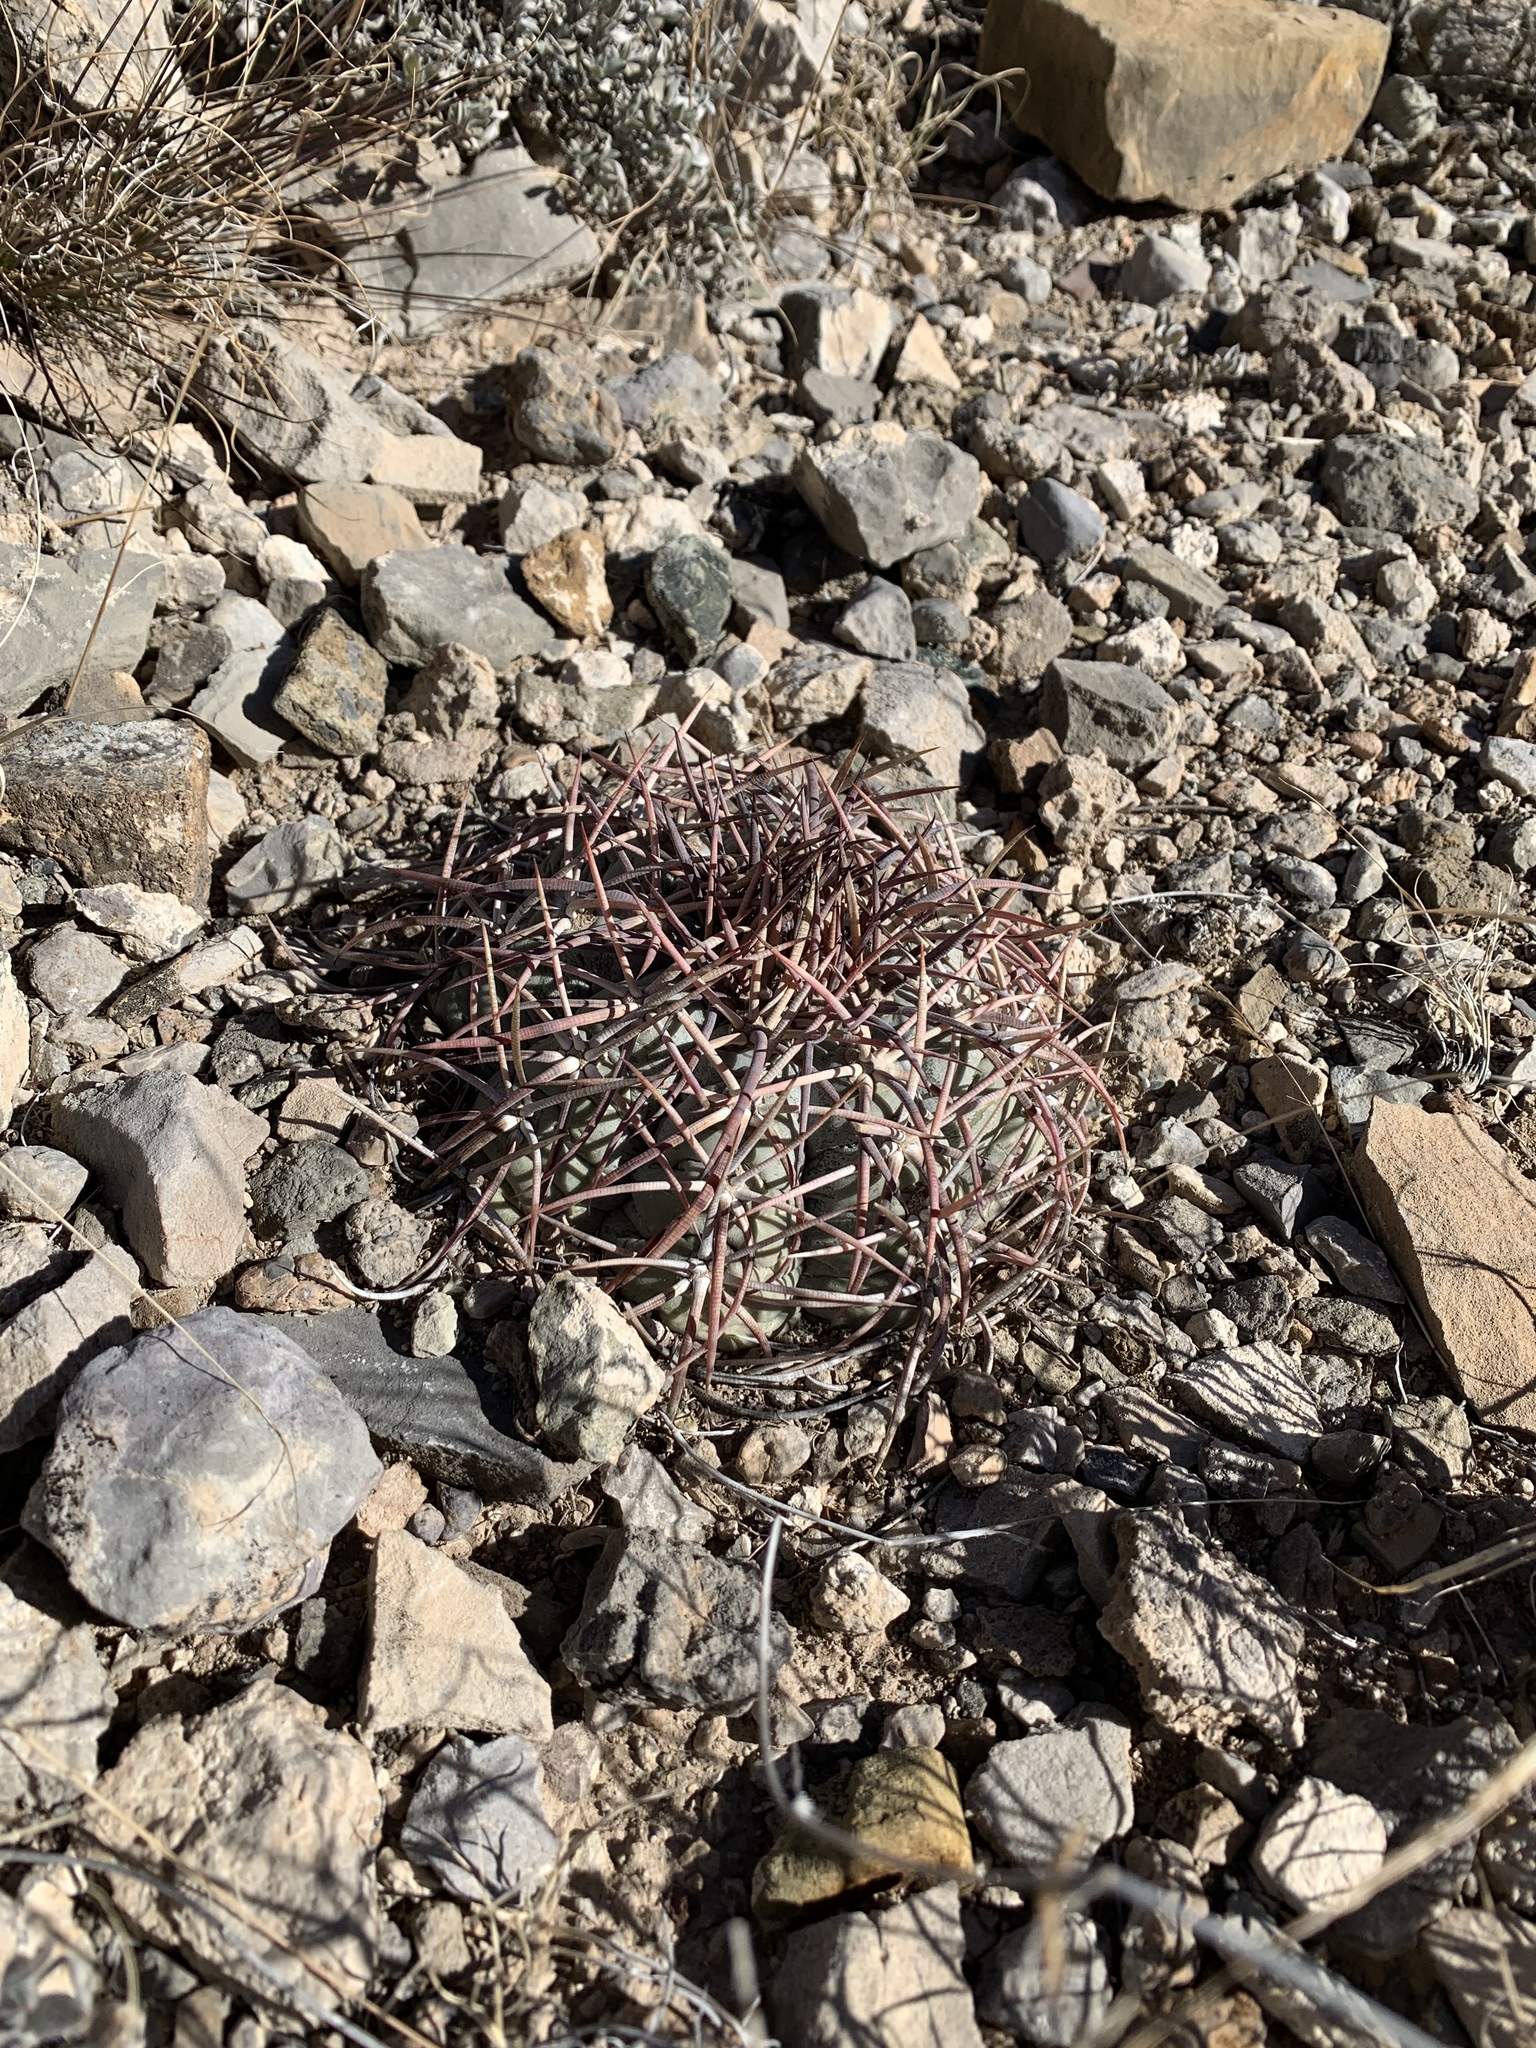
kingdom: Plantae
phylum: Tracheophyta
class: Magnoliopsida
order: Caryophyllales
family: Cactaceae
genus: Echinocactus
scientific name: Echinocactus horizonthalonius
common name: Devilshead
